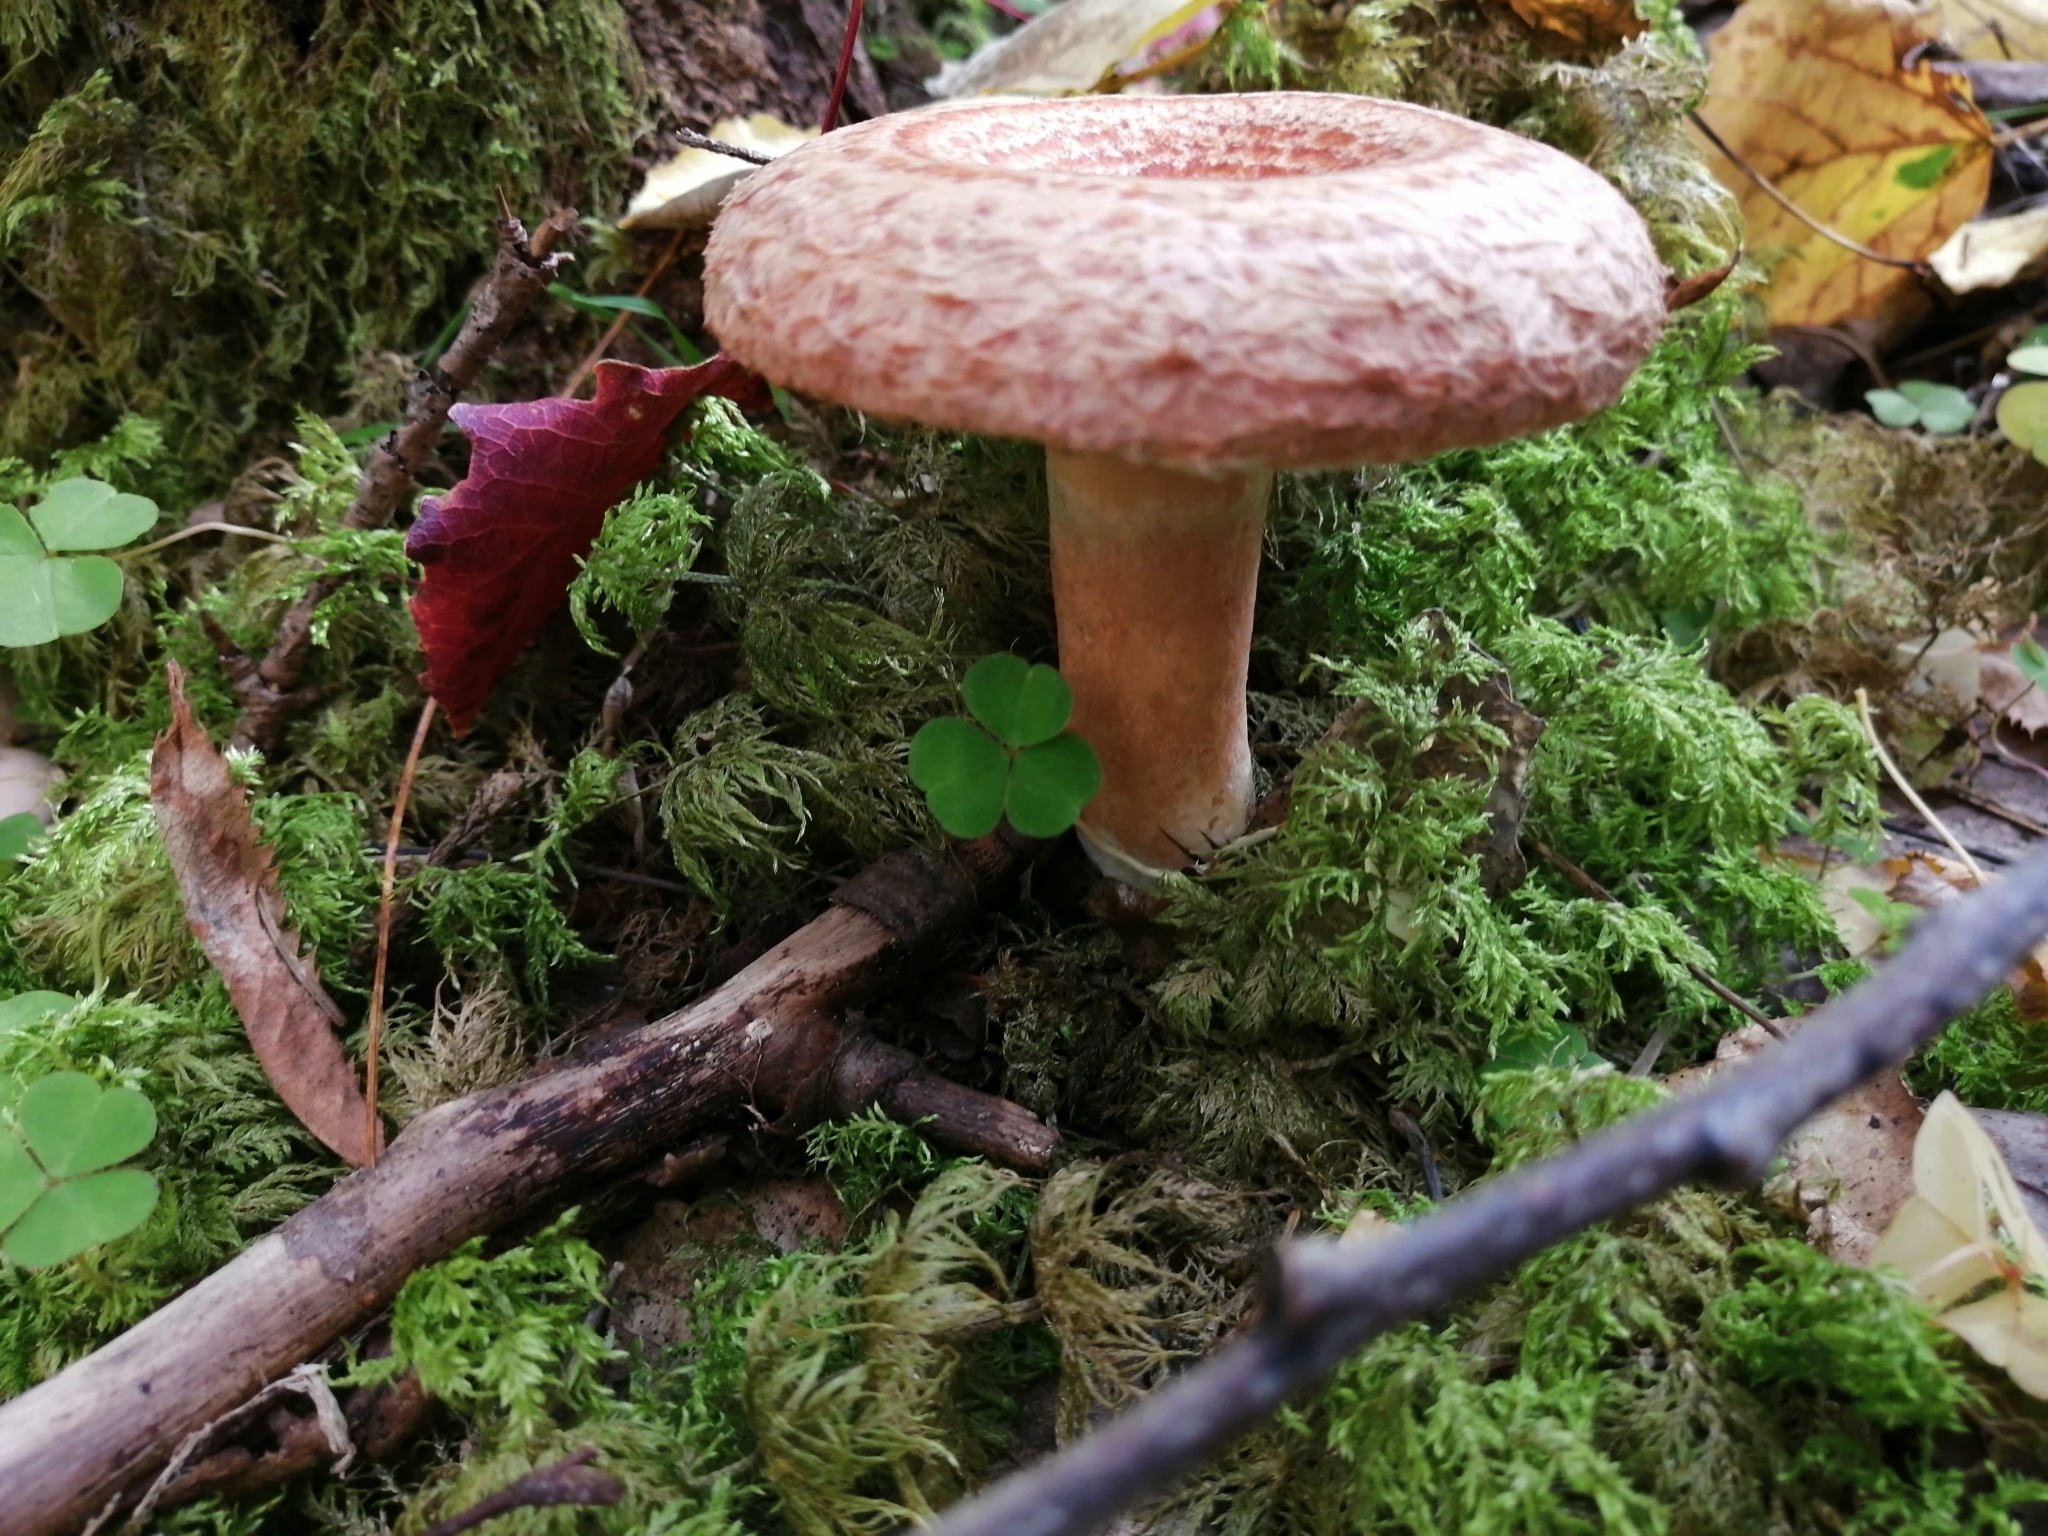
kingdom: Fungi
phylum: Basidiomycota
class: Agaricomycetes
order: Russulales
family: Russulaceae
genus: Lactarius
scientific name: Lactarius torminosus
